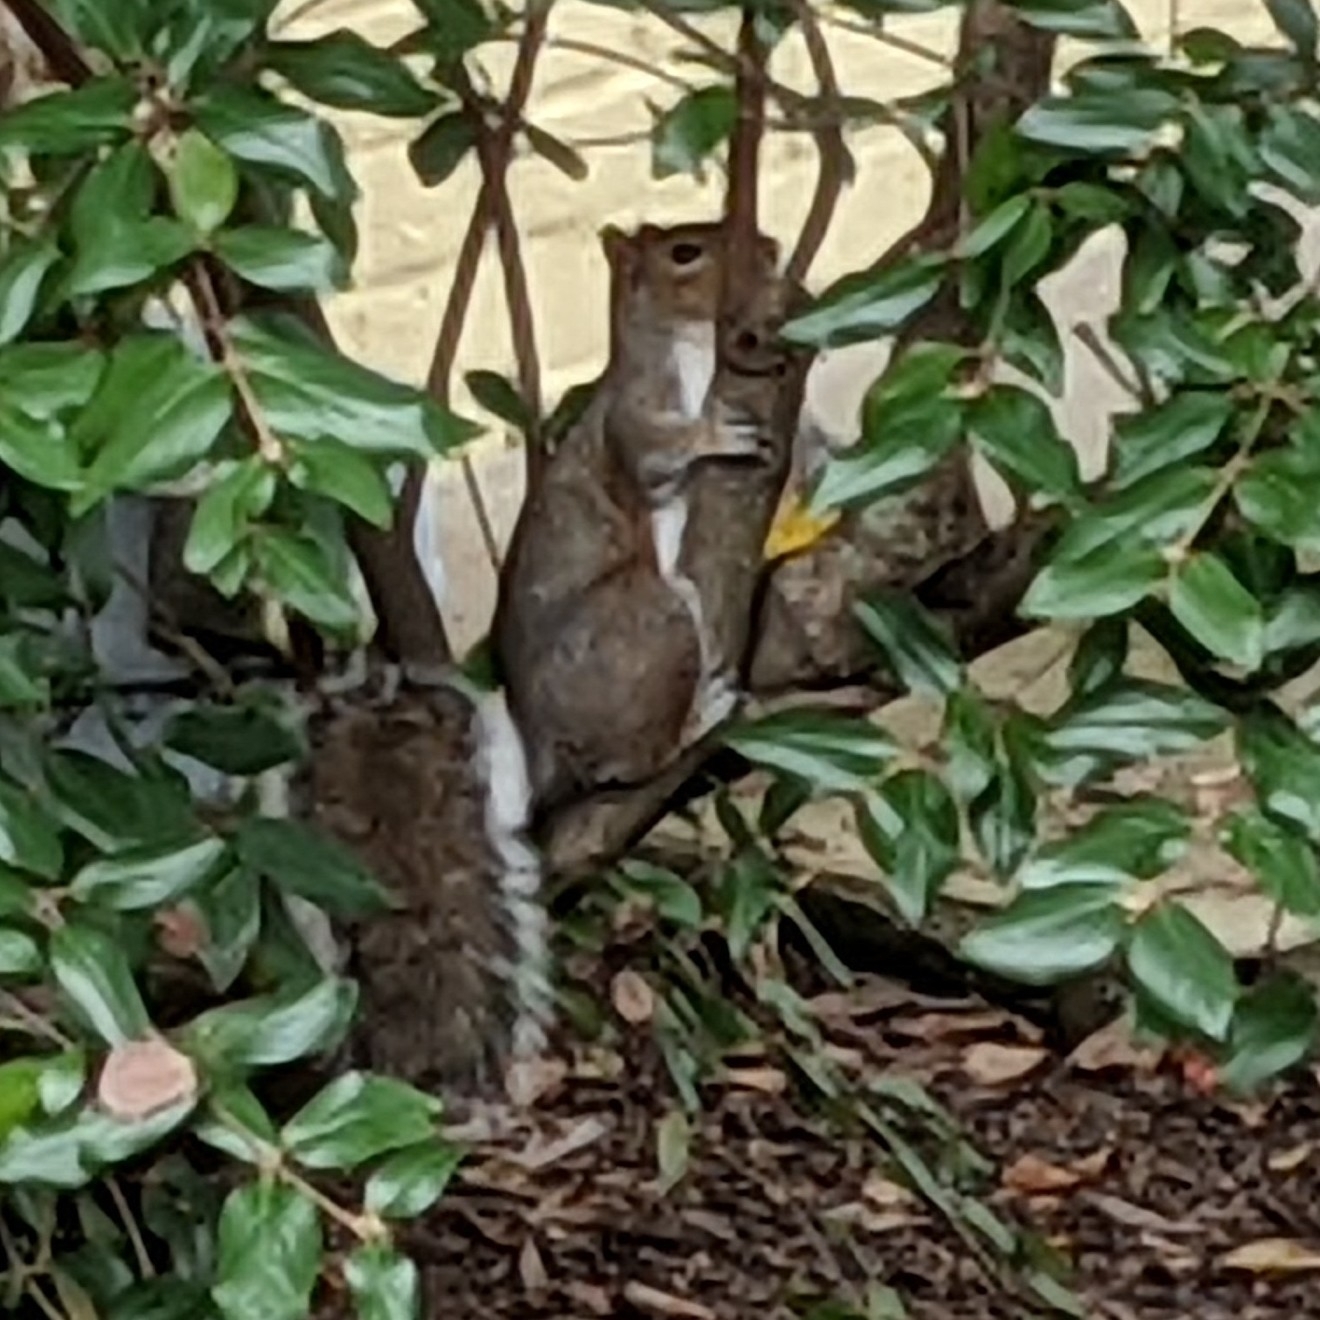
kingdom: Animalia
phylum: Chordata
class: Mammalia
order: Rodentia
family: Sciuridae
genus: Sciurus
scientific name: Sciurus carolinensis
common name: Eastern gray squirrel
